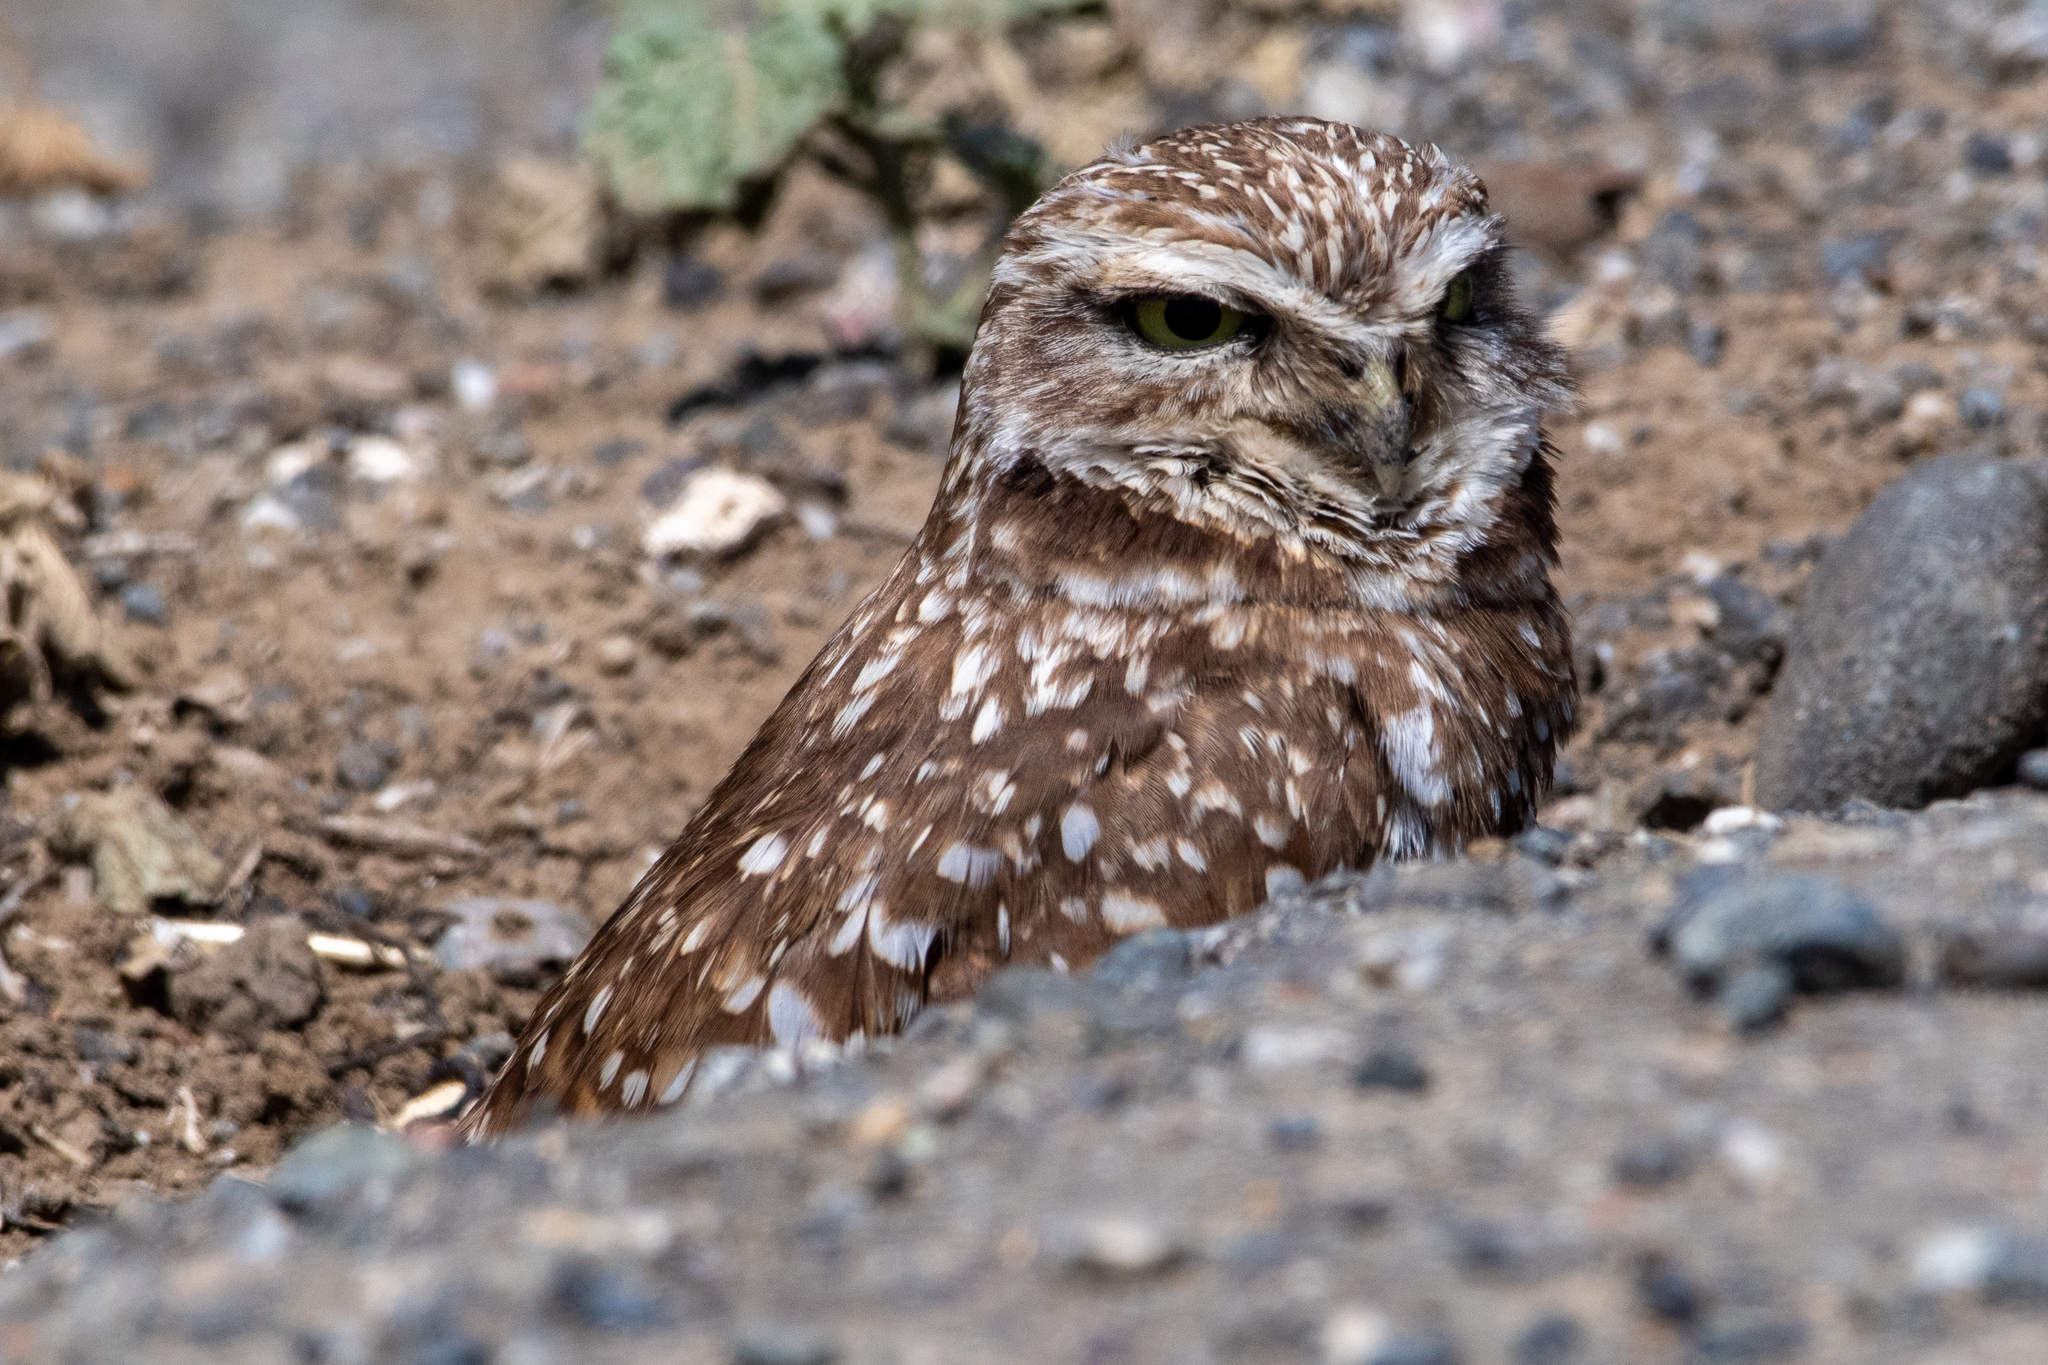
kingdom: Animalia
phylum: Chordata
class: Aves
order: Strigiformes
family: Strigidae
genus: Athene
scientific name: Athene cunicularia
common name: Burrowing owl
